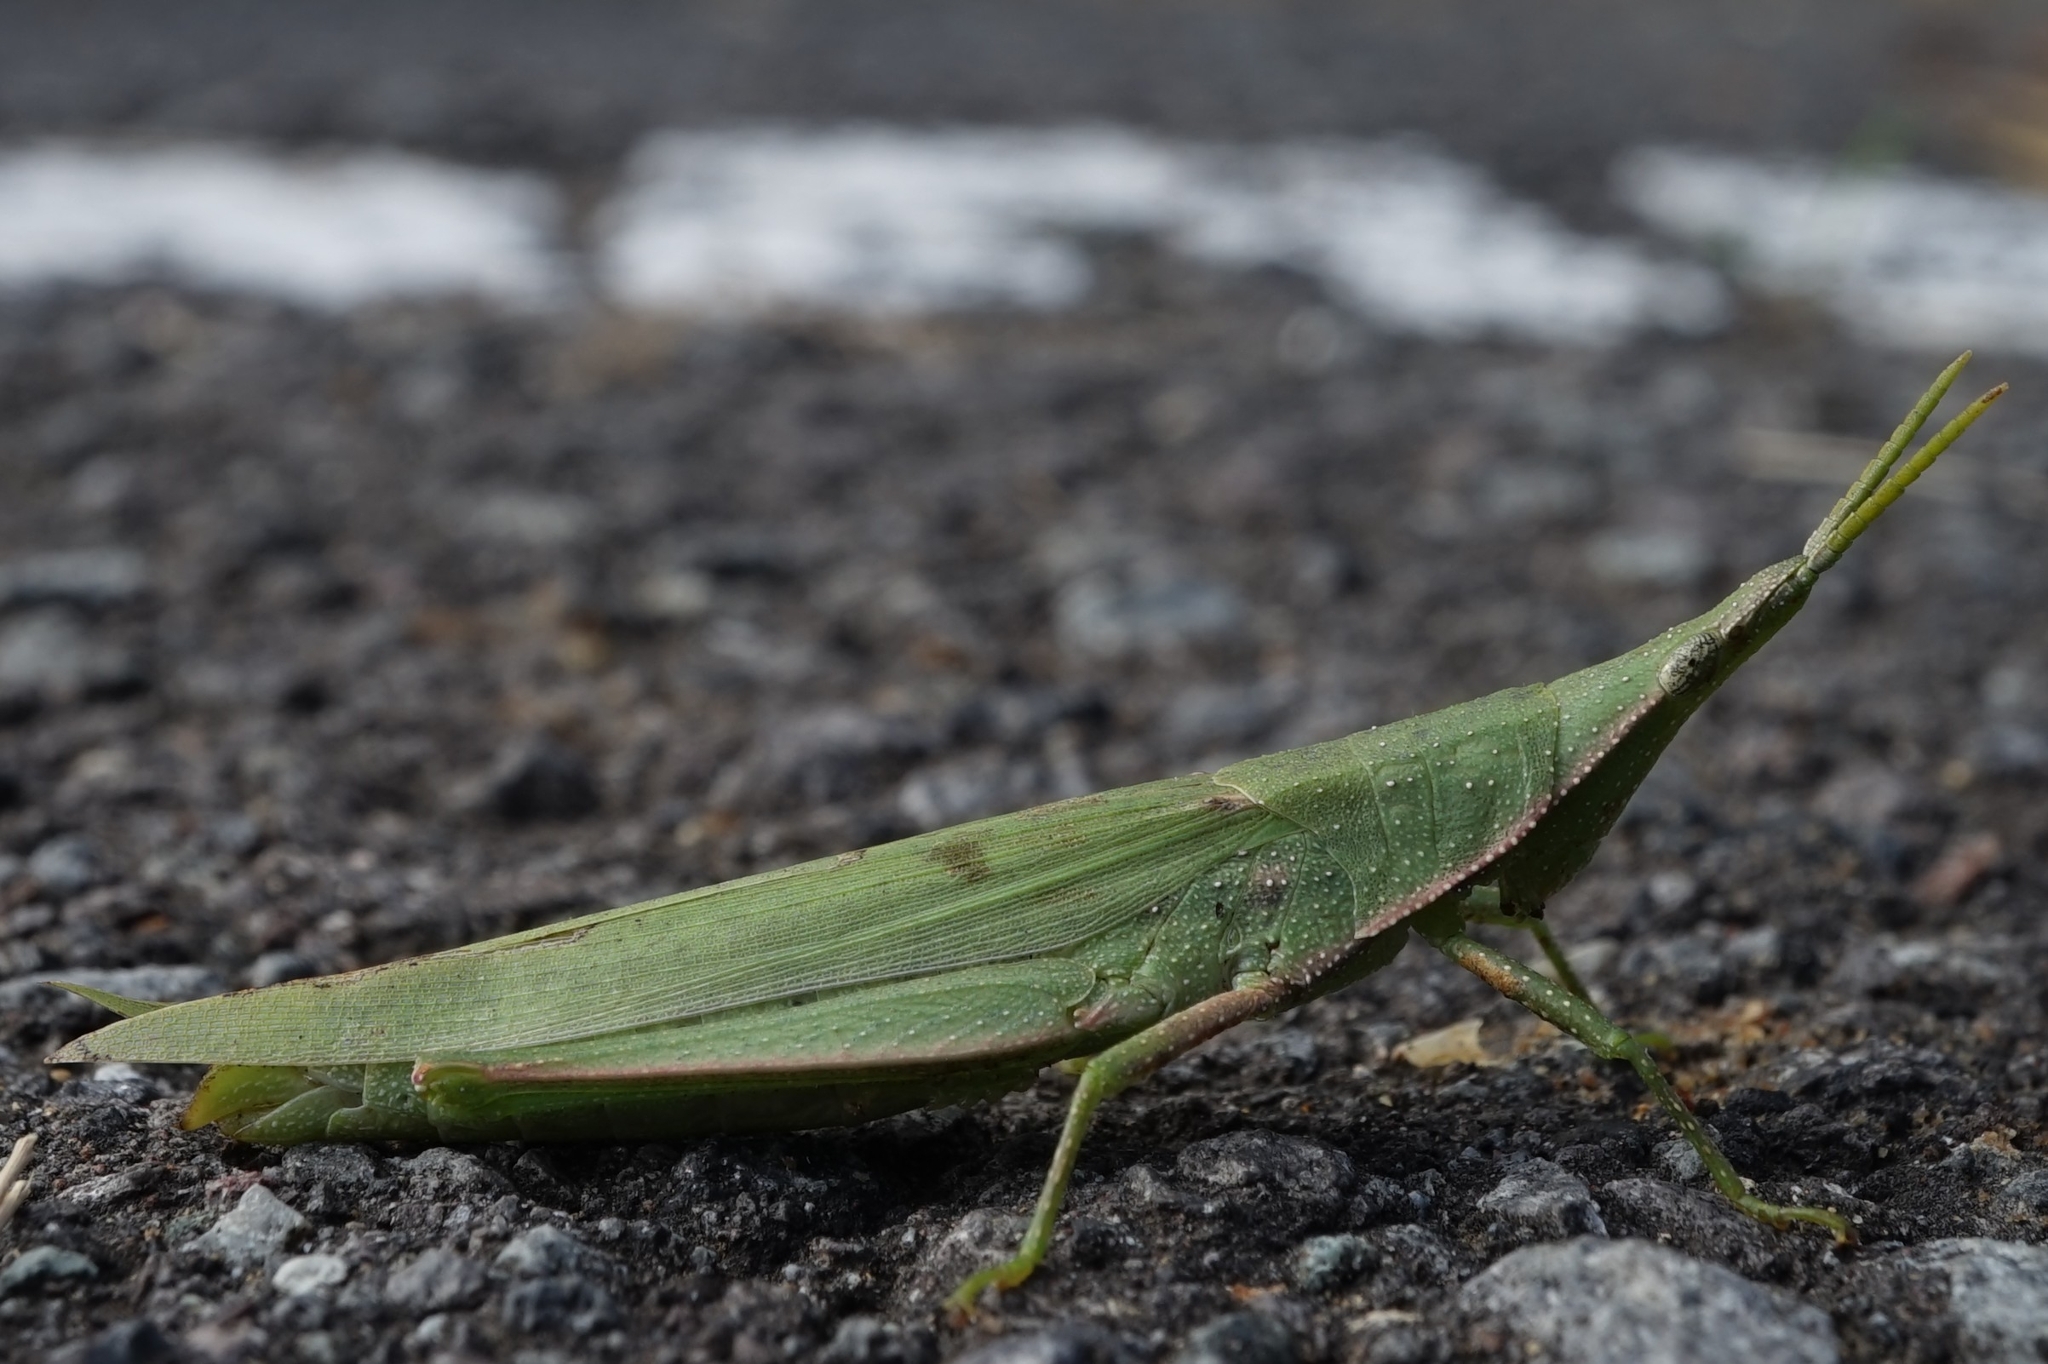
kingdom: Animalia
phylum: Arthropoda
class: Insecta
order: Orthoptera
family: Pyrgomorphidae
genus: Atractomorpha
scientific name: Atractomorpha lata
